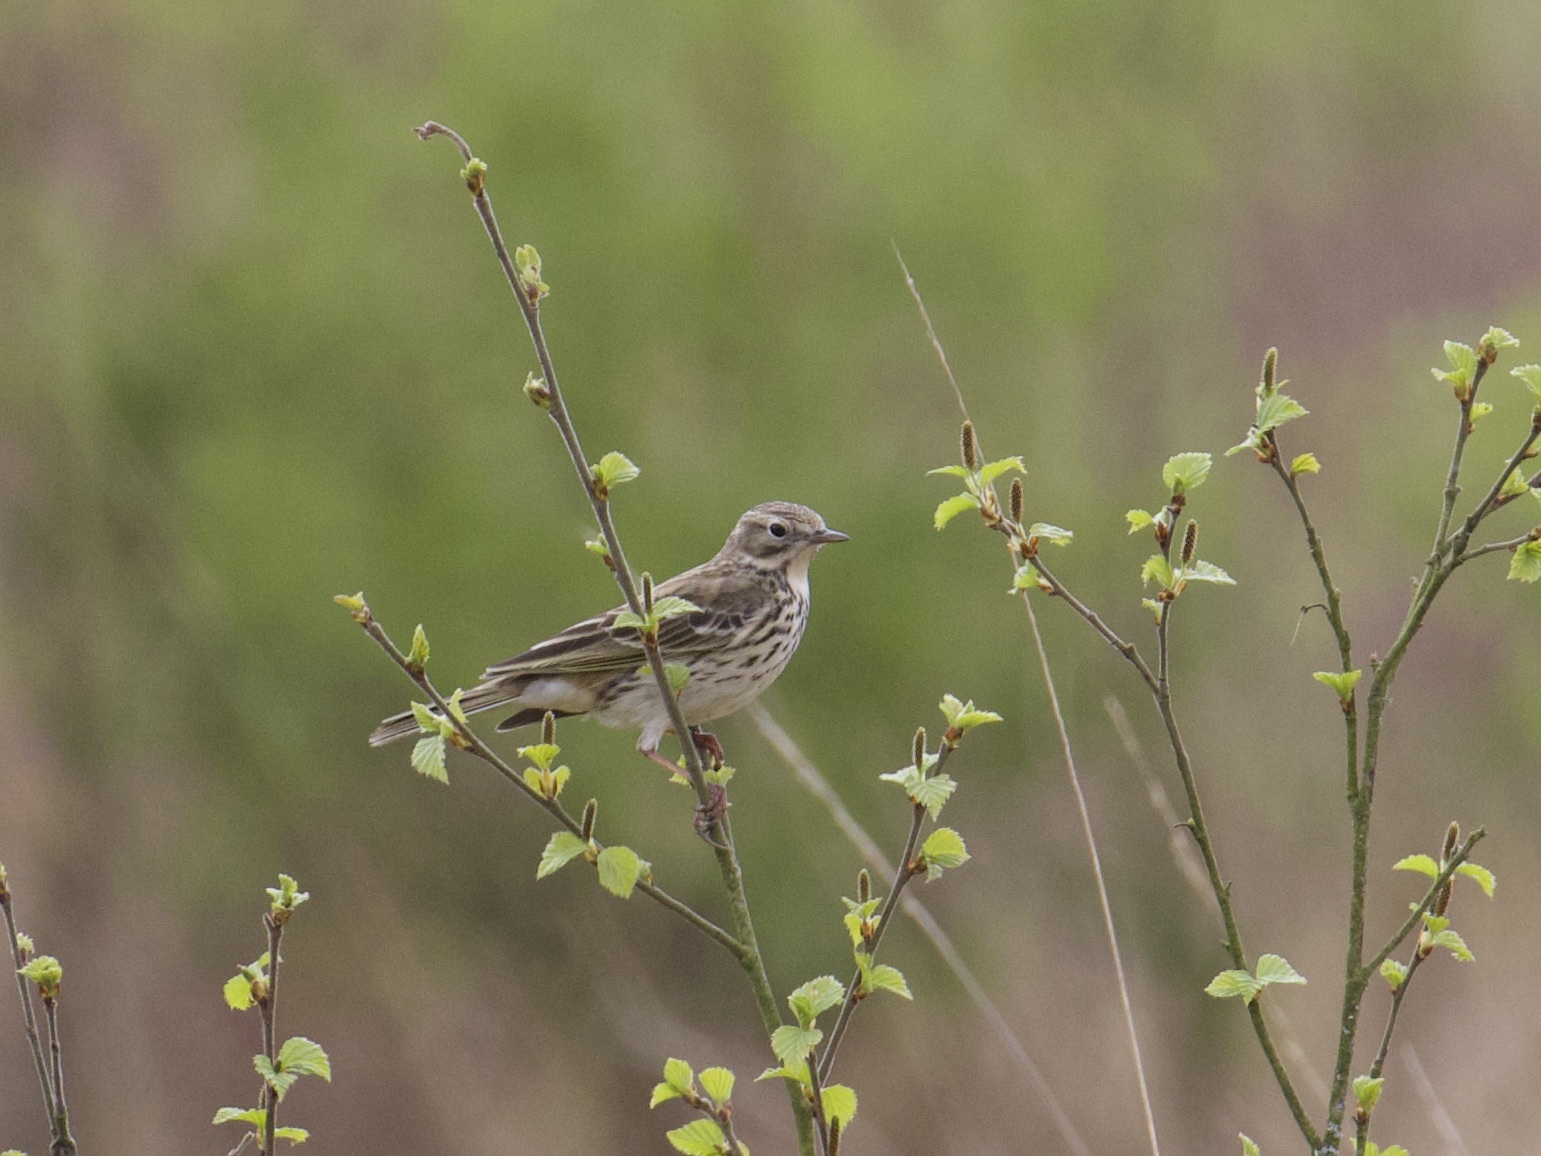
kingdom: Animalia
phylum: Chordata
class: Aves
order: Passeriformes
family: Motacillidae
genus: Anthus
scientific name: Anthus pratensis
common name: Meadow pipit
